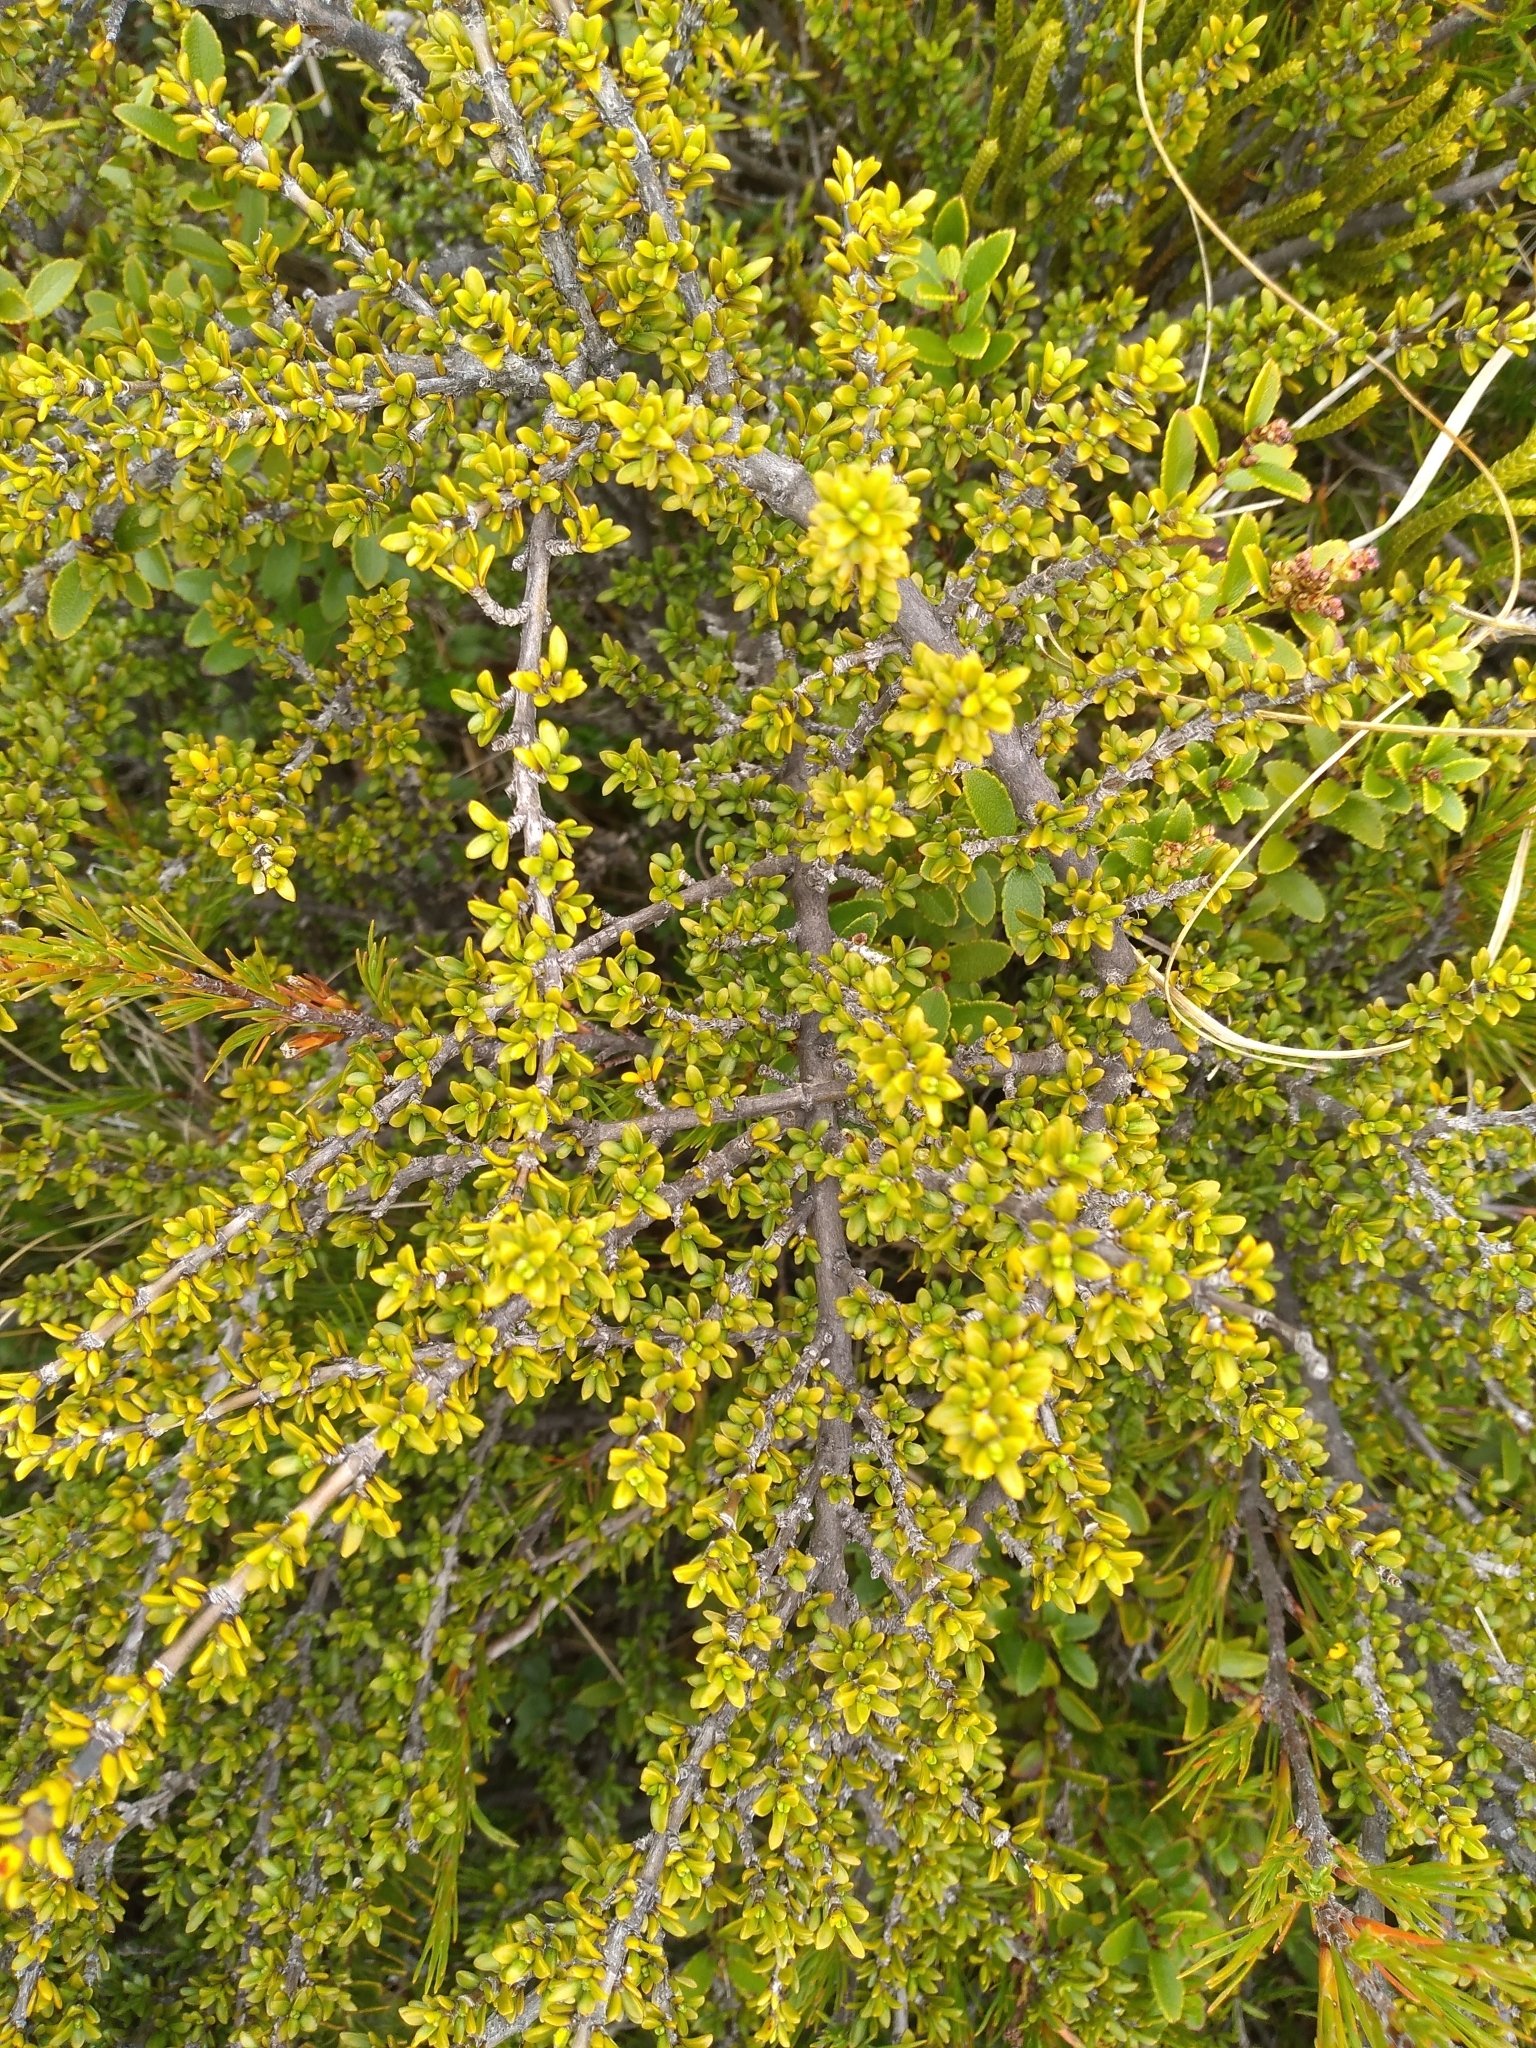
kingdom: Plantae
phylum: Tracheophyta
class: Magnoliopsida
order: Gentianales
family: Rubiaceae
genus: Coprosma
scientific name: Coprosma fowerakeri
